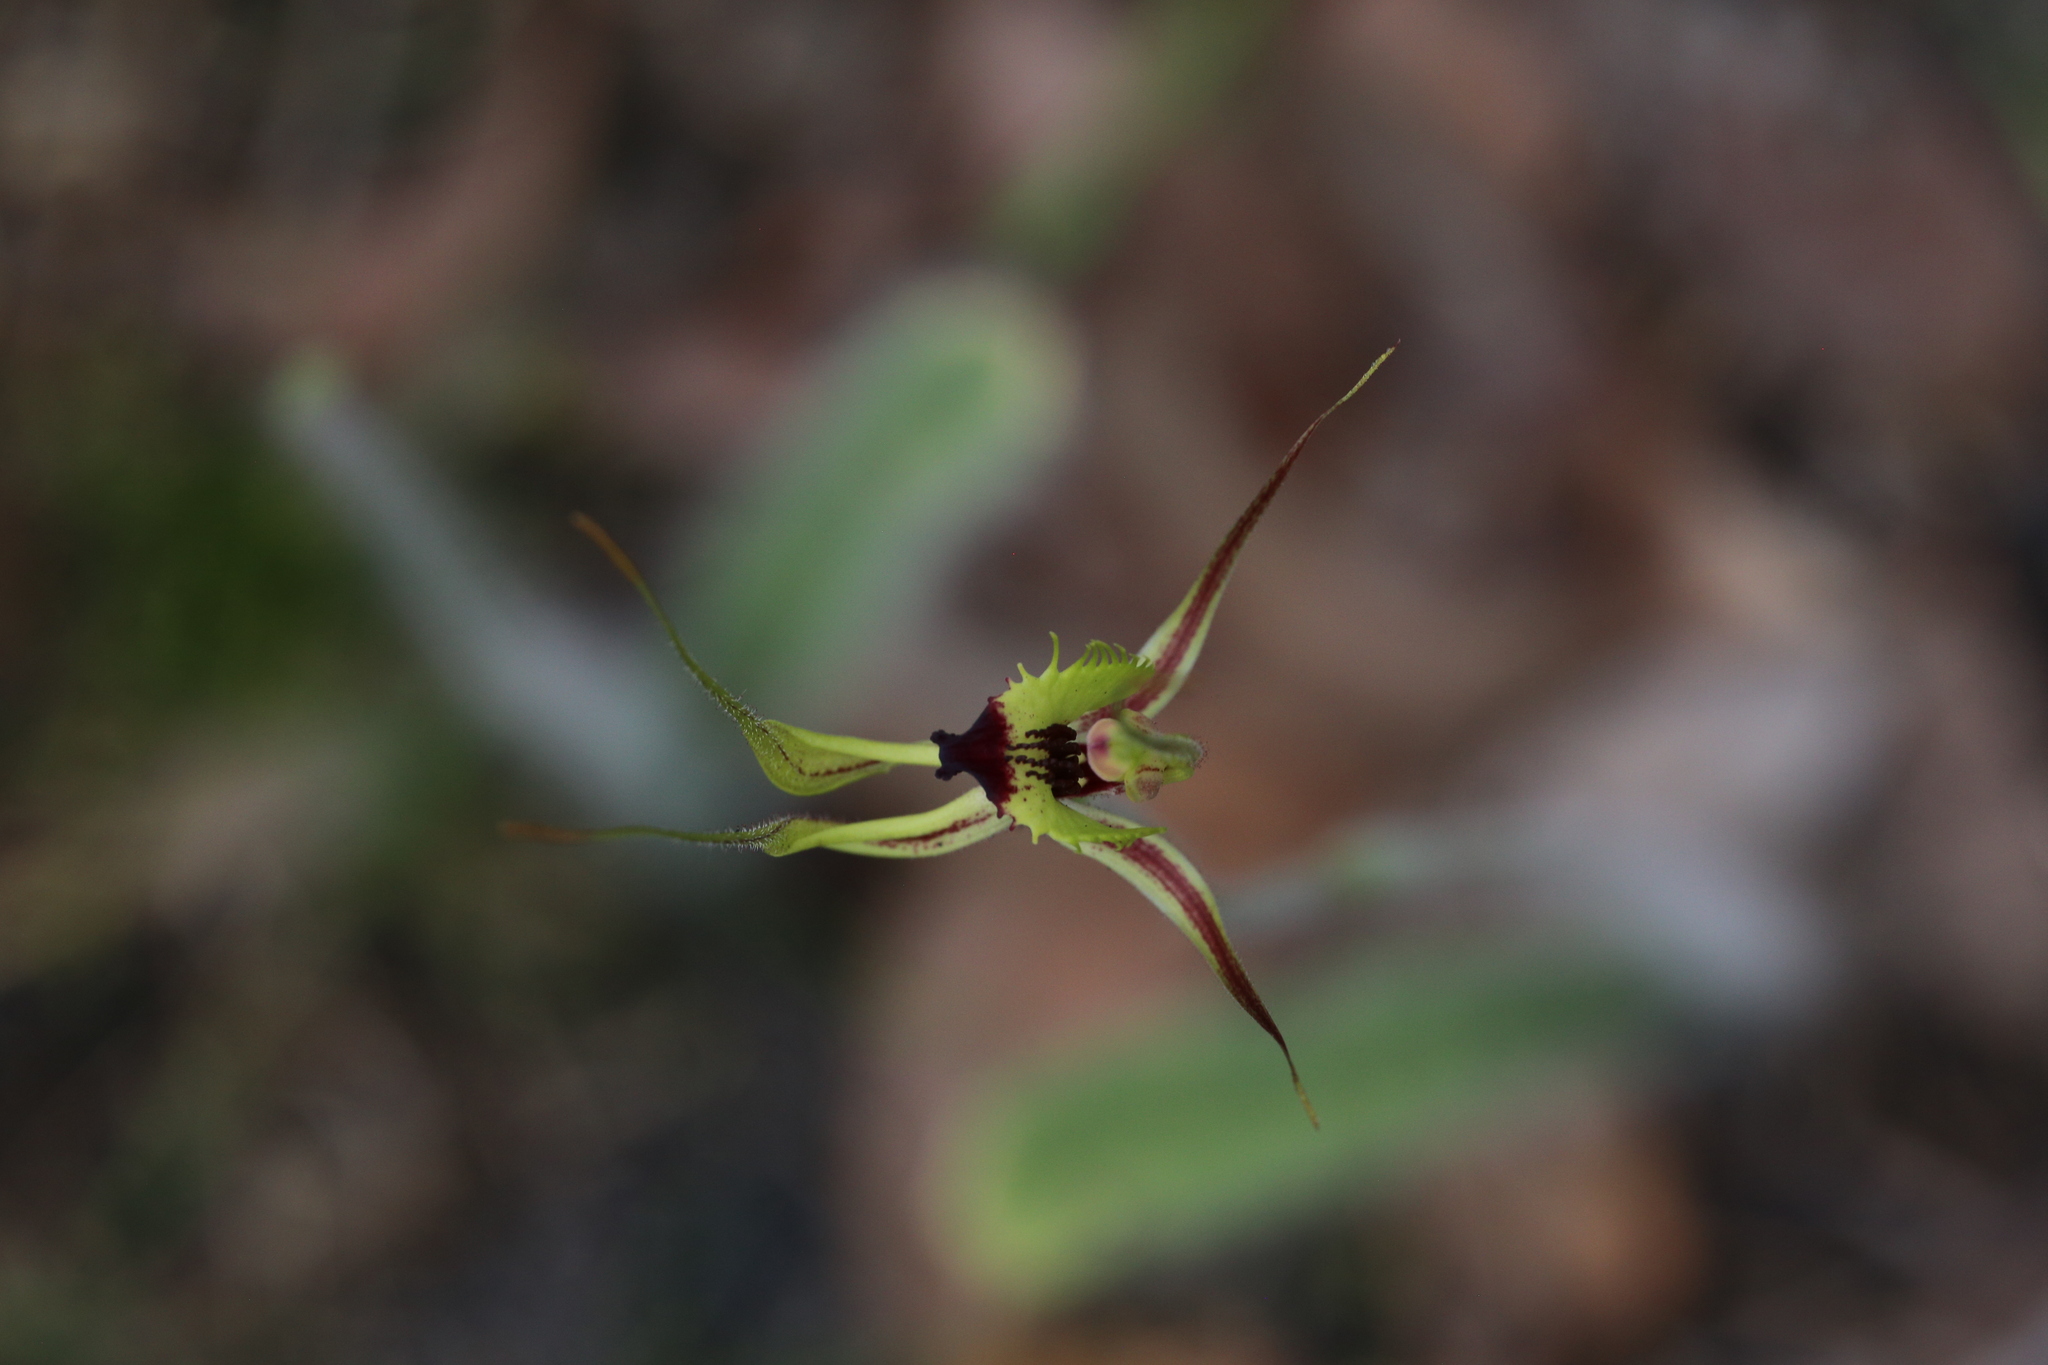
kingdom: Plantae
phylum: Tracheophyta
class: Liliopsida
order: Asparagales
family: Orchidaceae
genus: Caladenia
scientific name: Caladenia attingens
